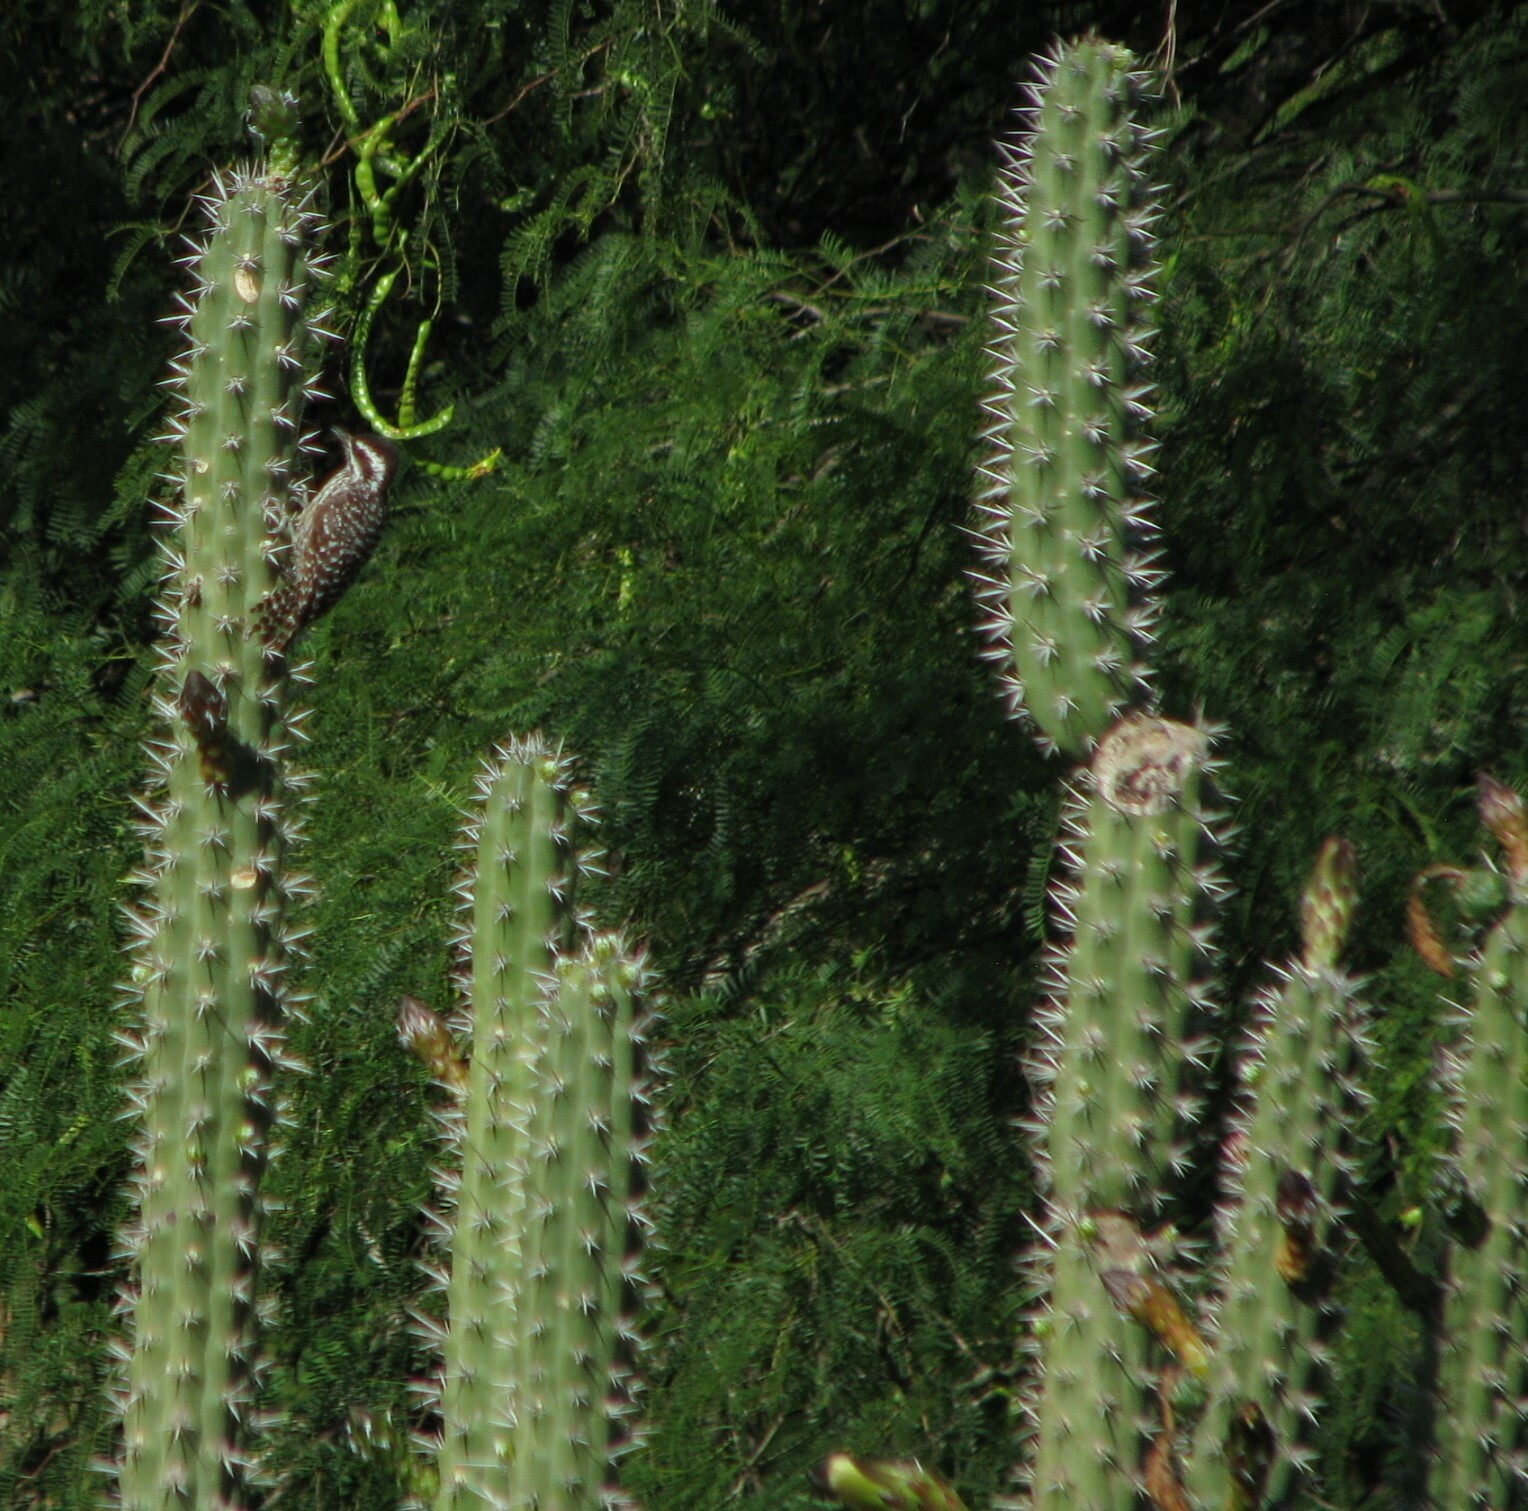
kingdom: Plantae
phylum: Tracheophyta
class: Magnoliopsida
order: Caryophyllales
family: Cactaceae
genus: Harrisia
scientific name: Harrisia tetracantha
